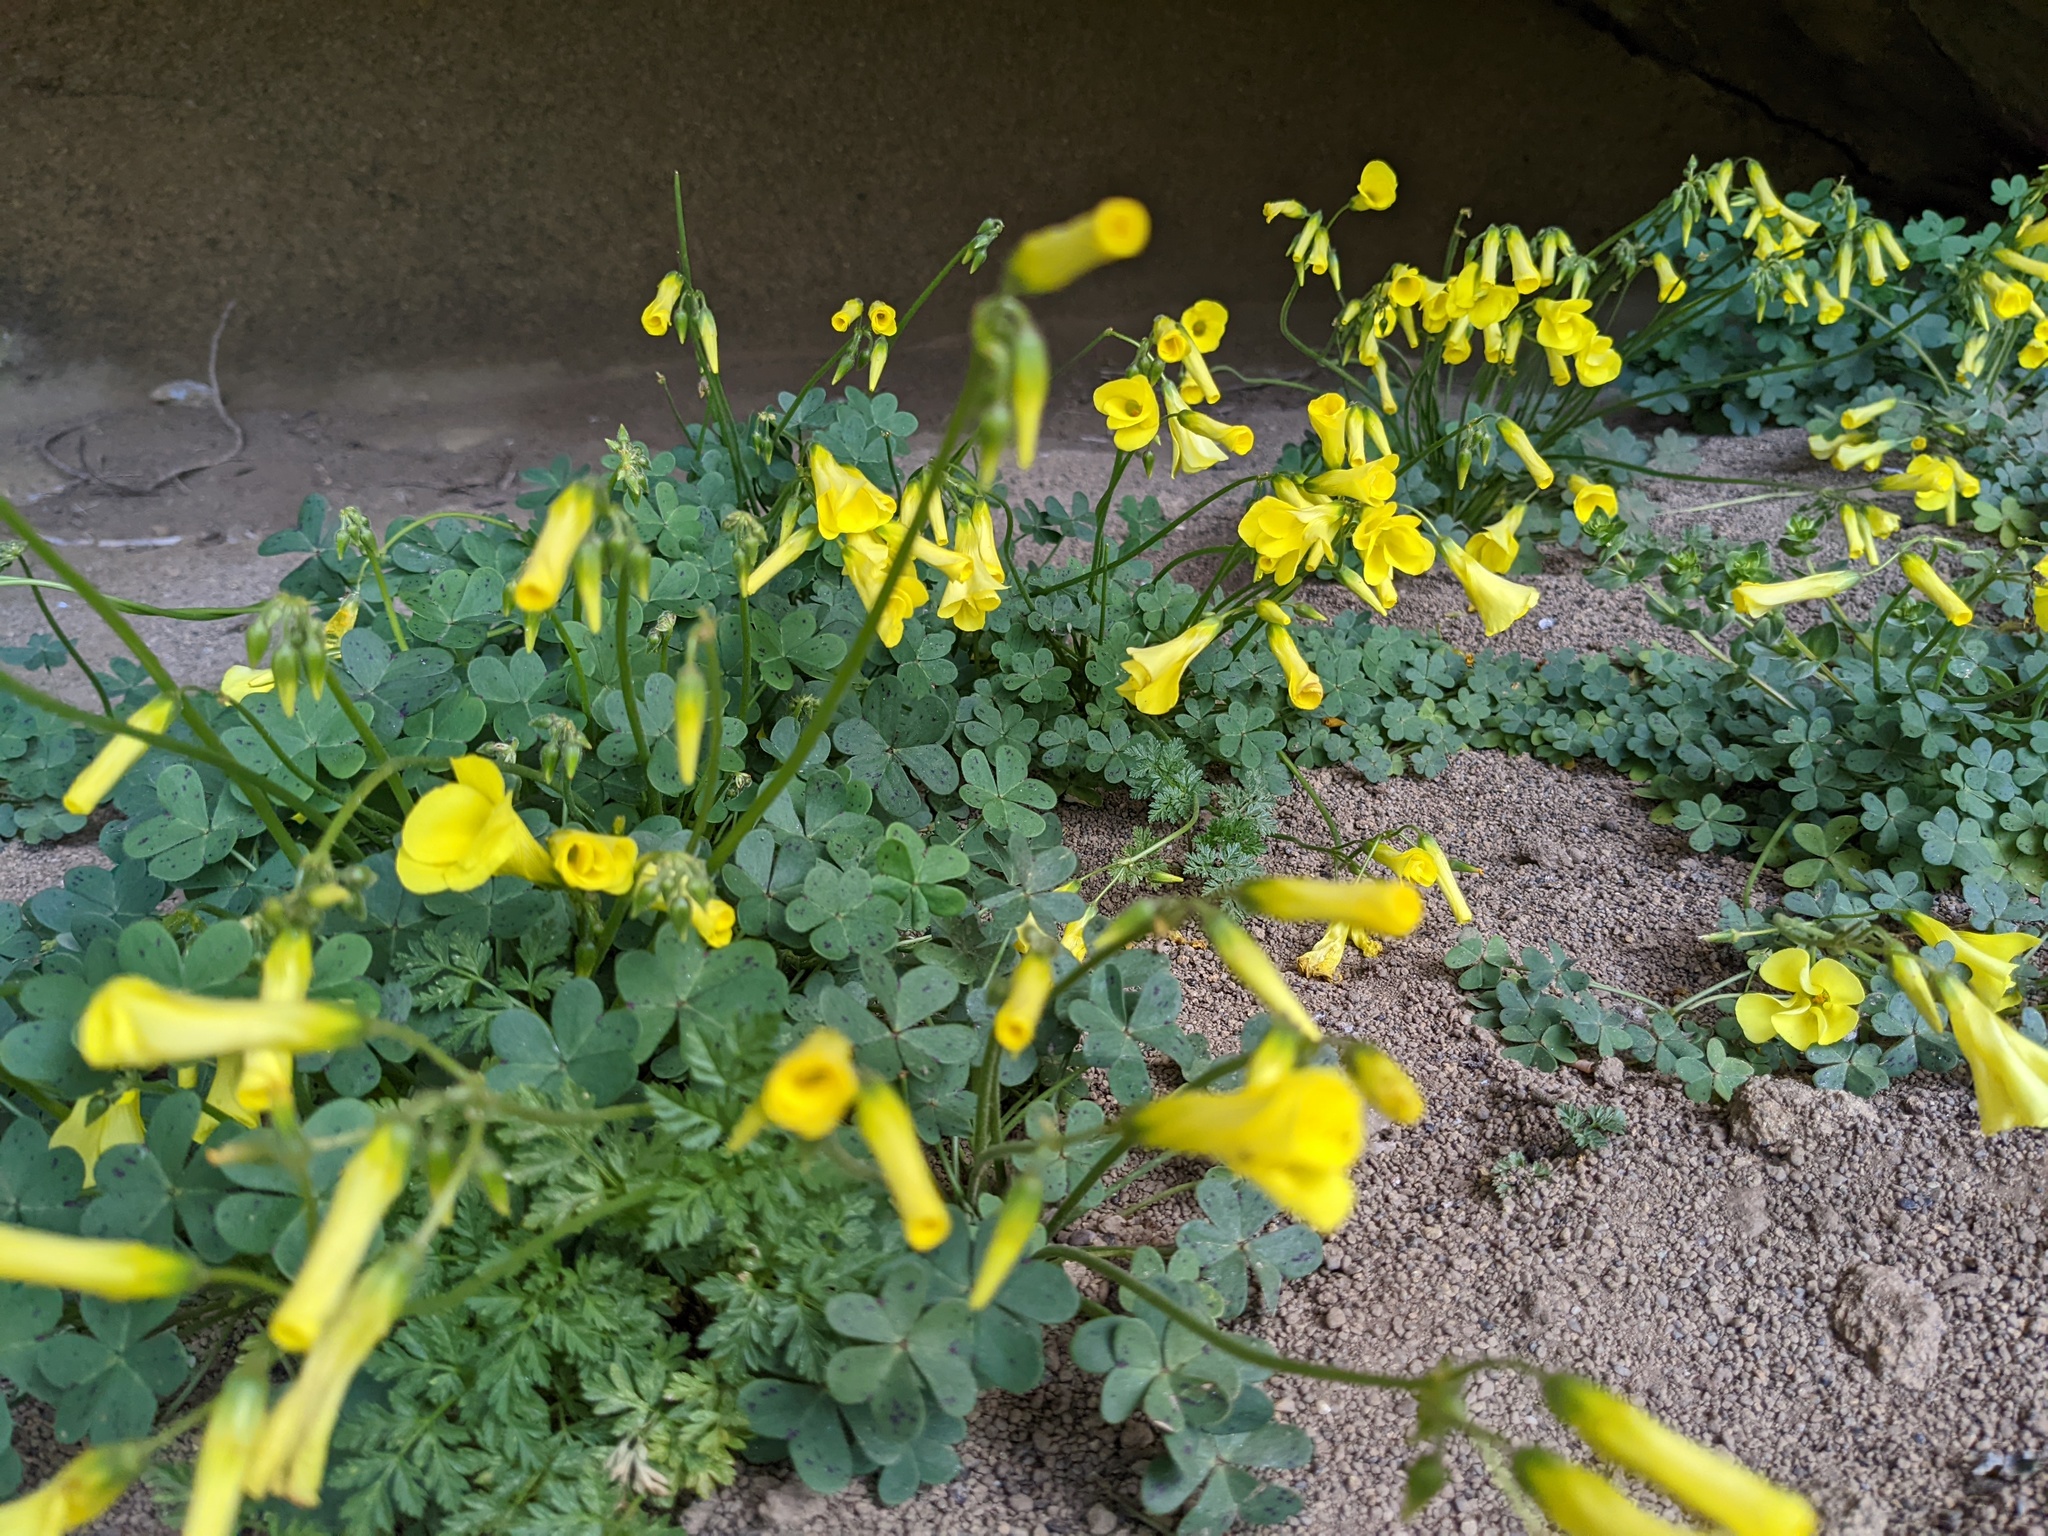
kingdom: Plantae
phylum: Tracheophyta
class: Magnoliopsida
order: Oxalidales
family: Oxalidaceae
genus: Oxalis
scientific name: Oxalis pes-caprae
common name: Bermuda-buttercup
